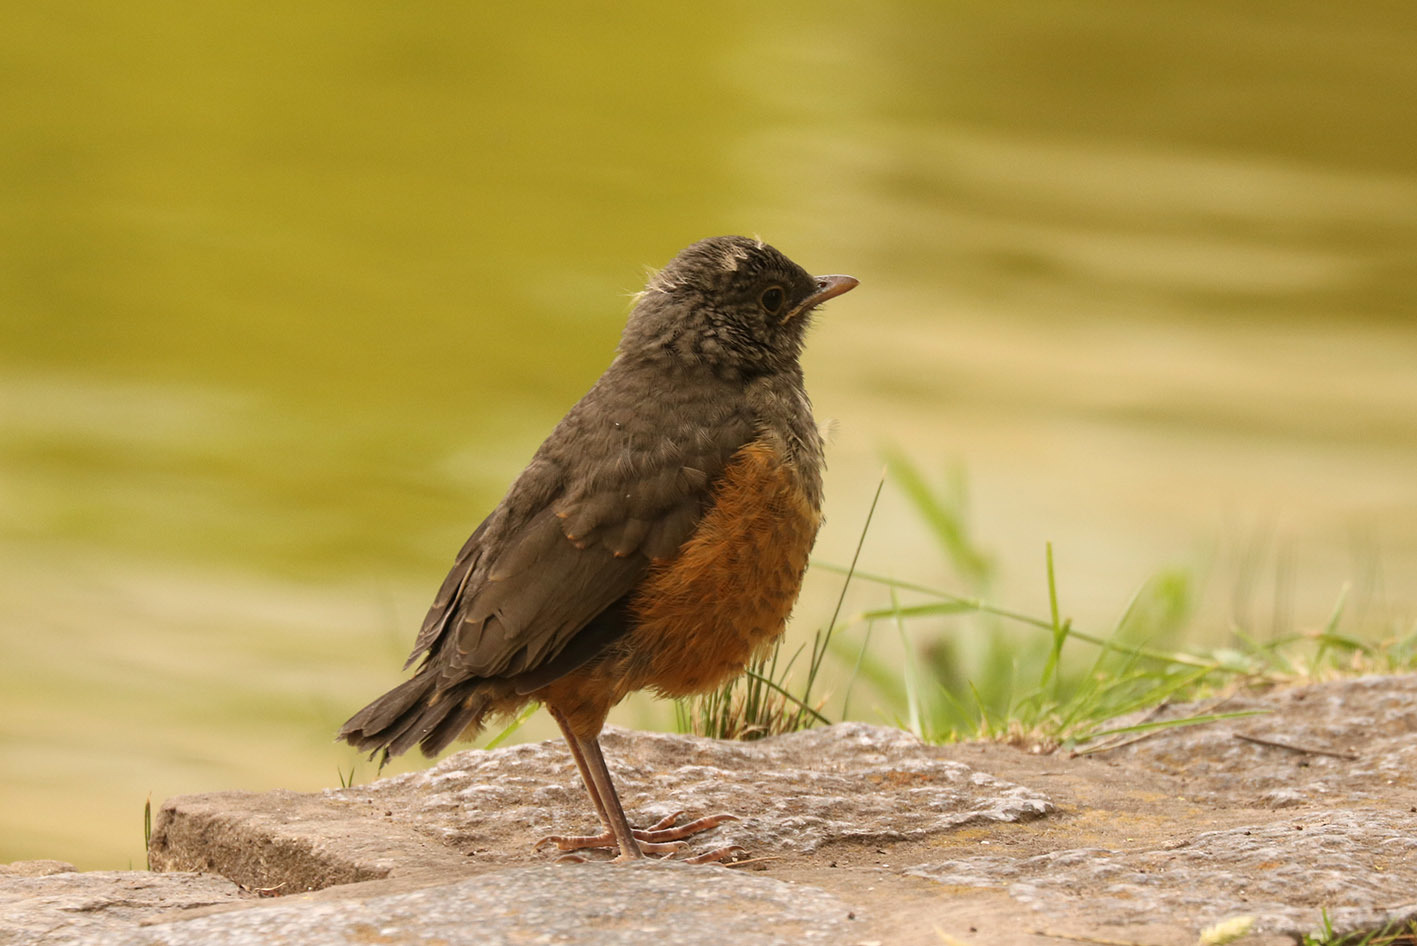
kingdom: Animalia
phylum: Chordata
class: Aves
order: Passeriformes
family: Turdidae
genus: Turdus
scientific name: Turdus rufiventris
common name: Rufous-bellied thrush
